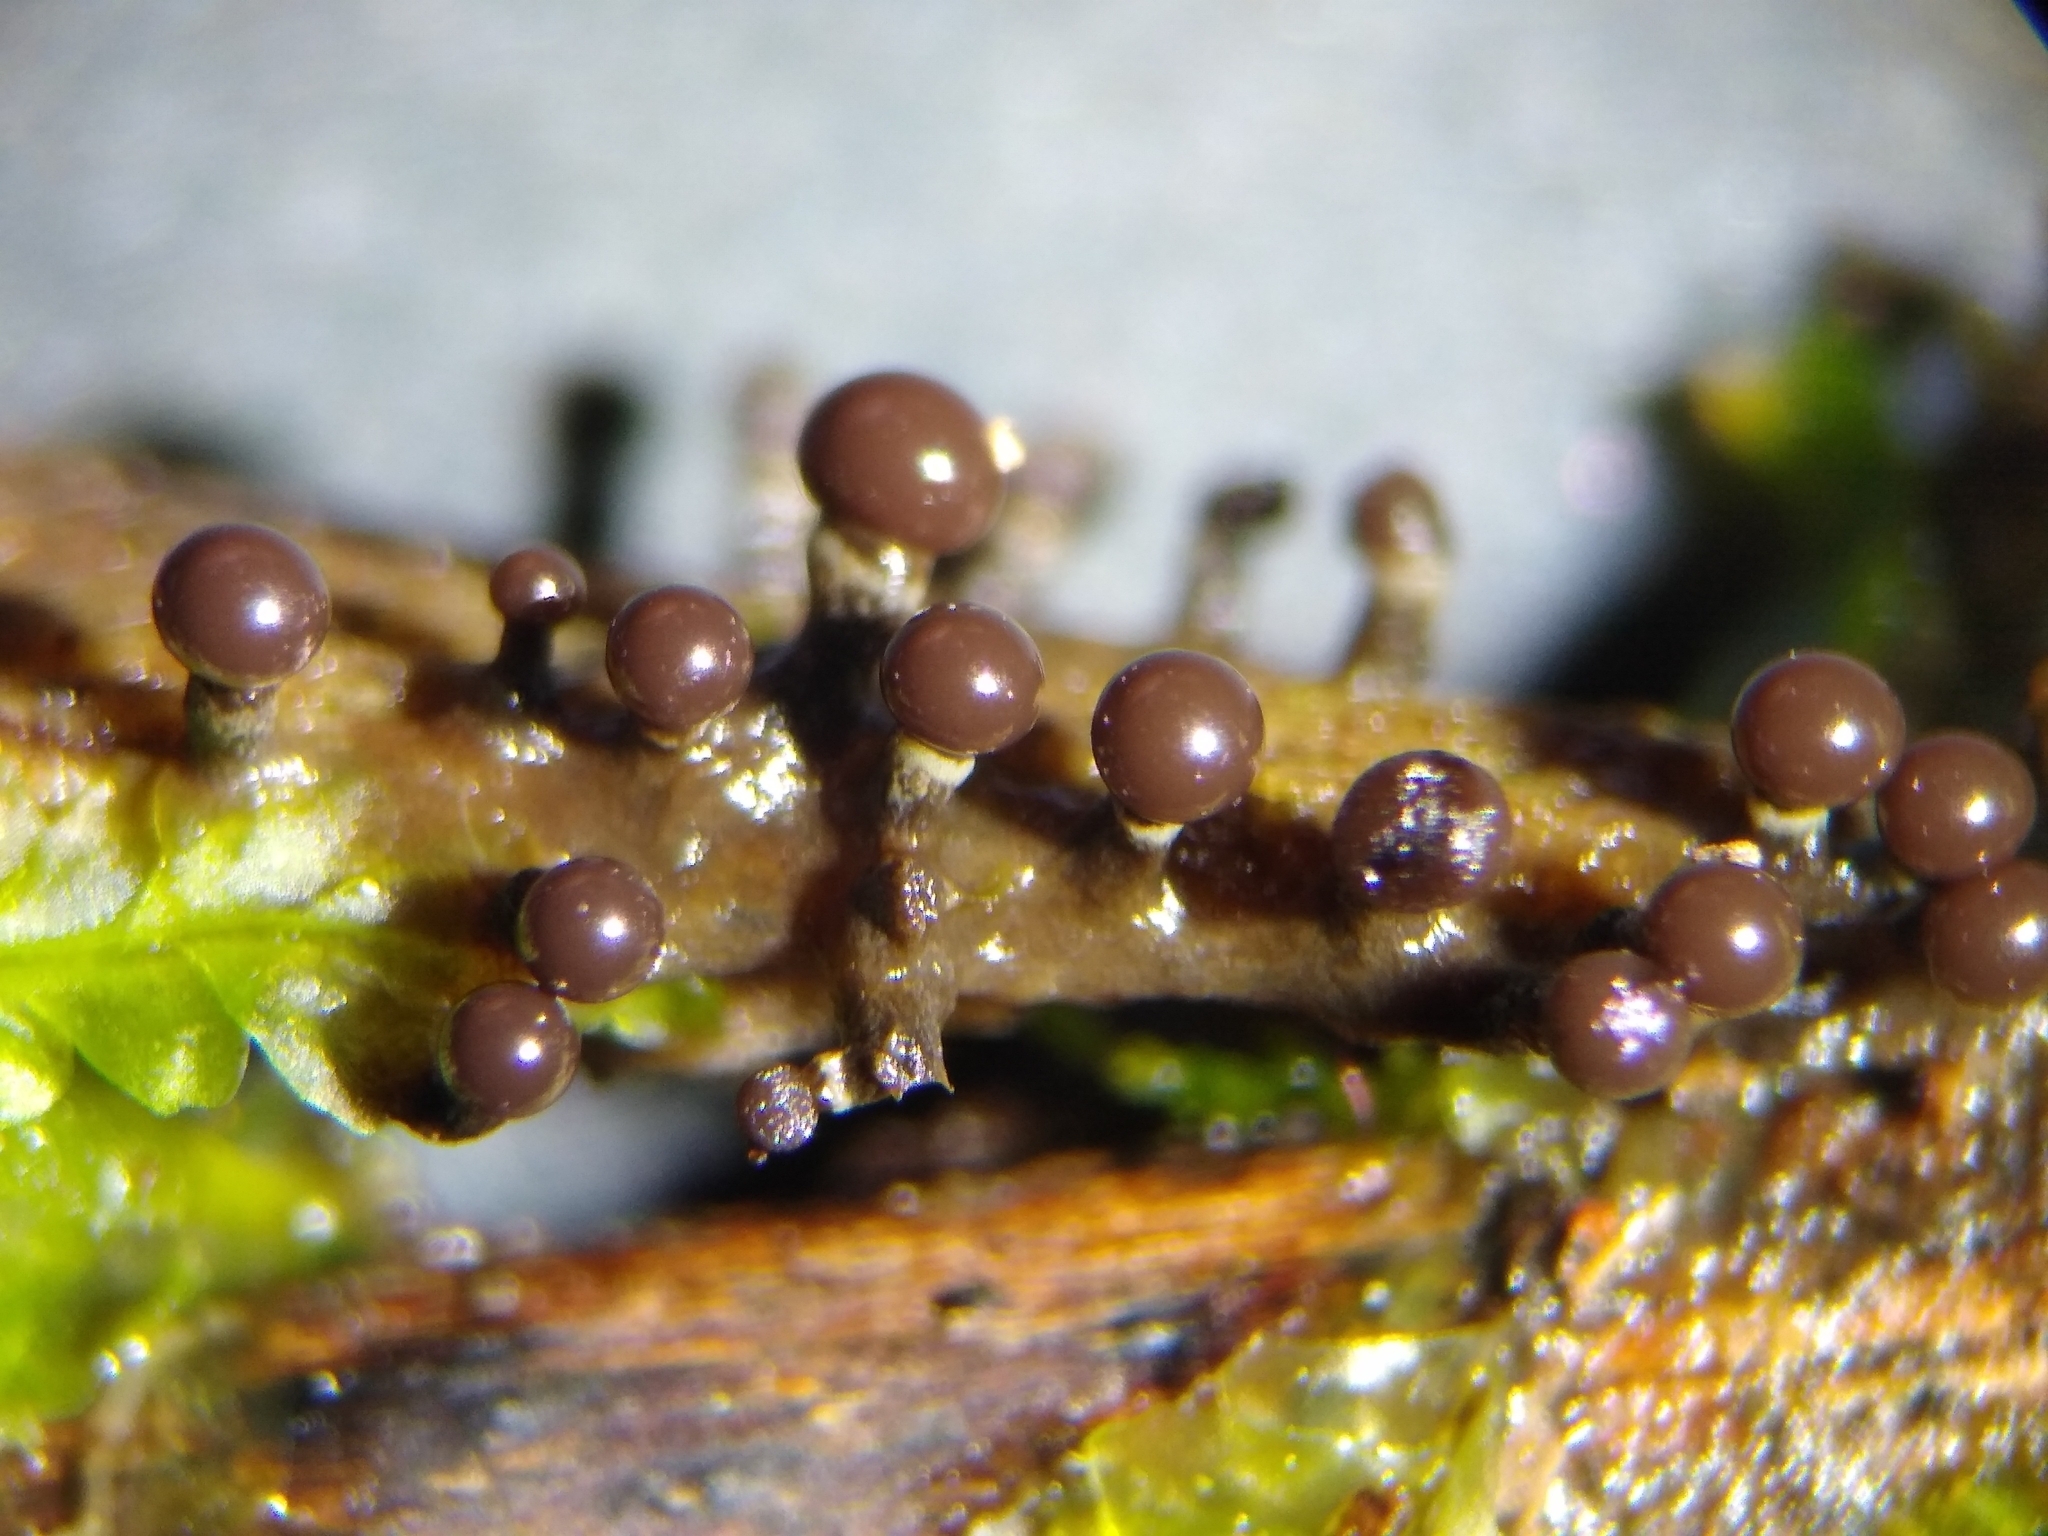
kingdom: Protozoa
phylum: Mycetozoa
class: Myxomycetes
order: Physarales
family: Elaeomyxaceae
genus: Elaeomyxa
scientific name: Elaeomyxa cerifera
